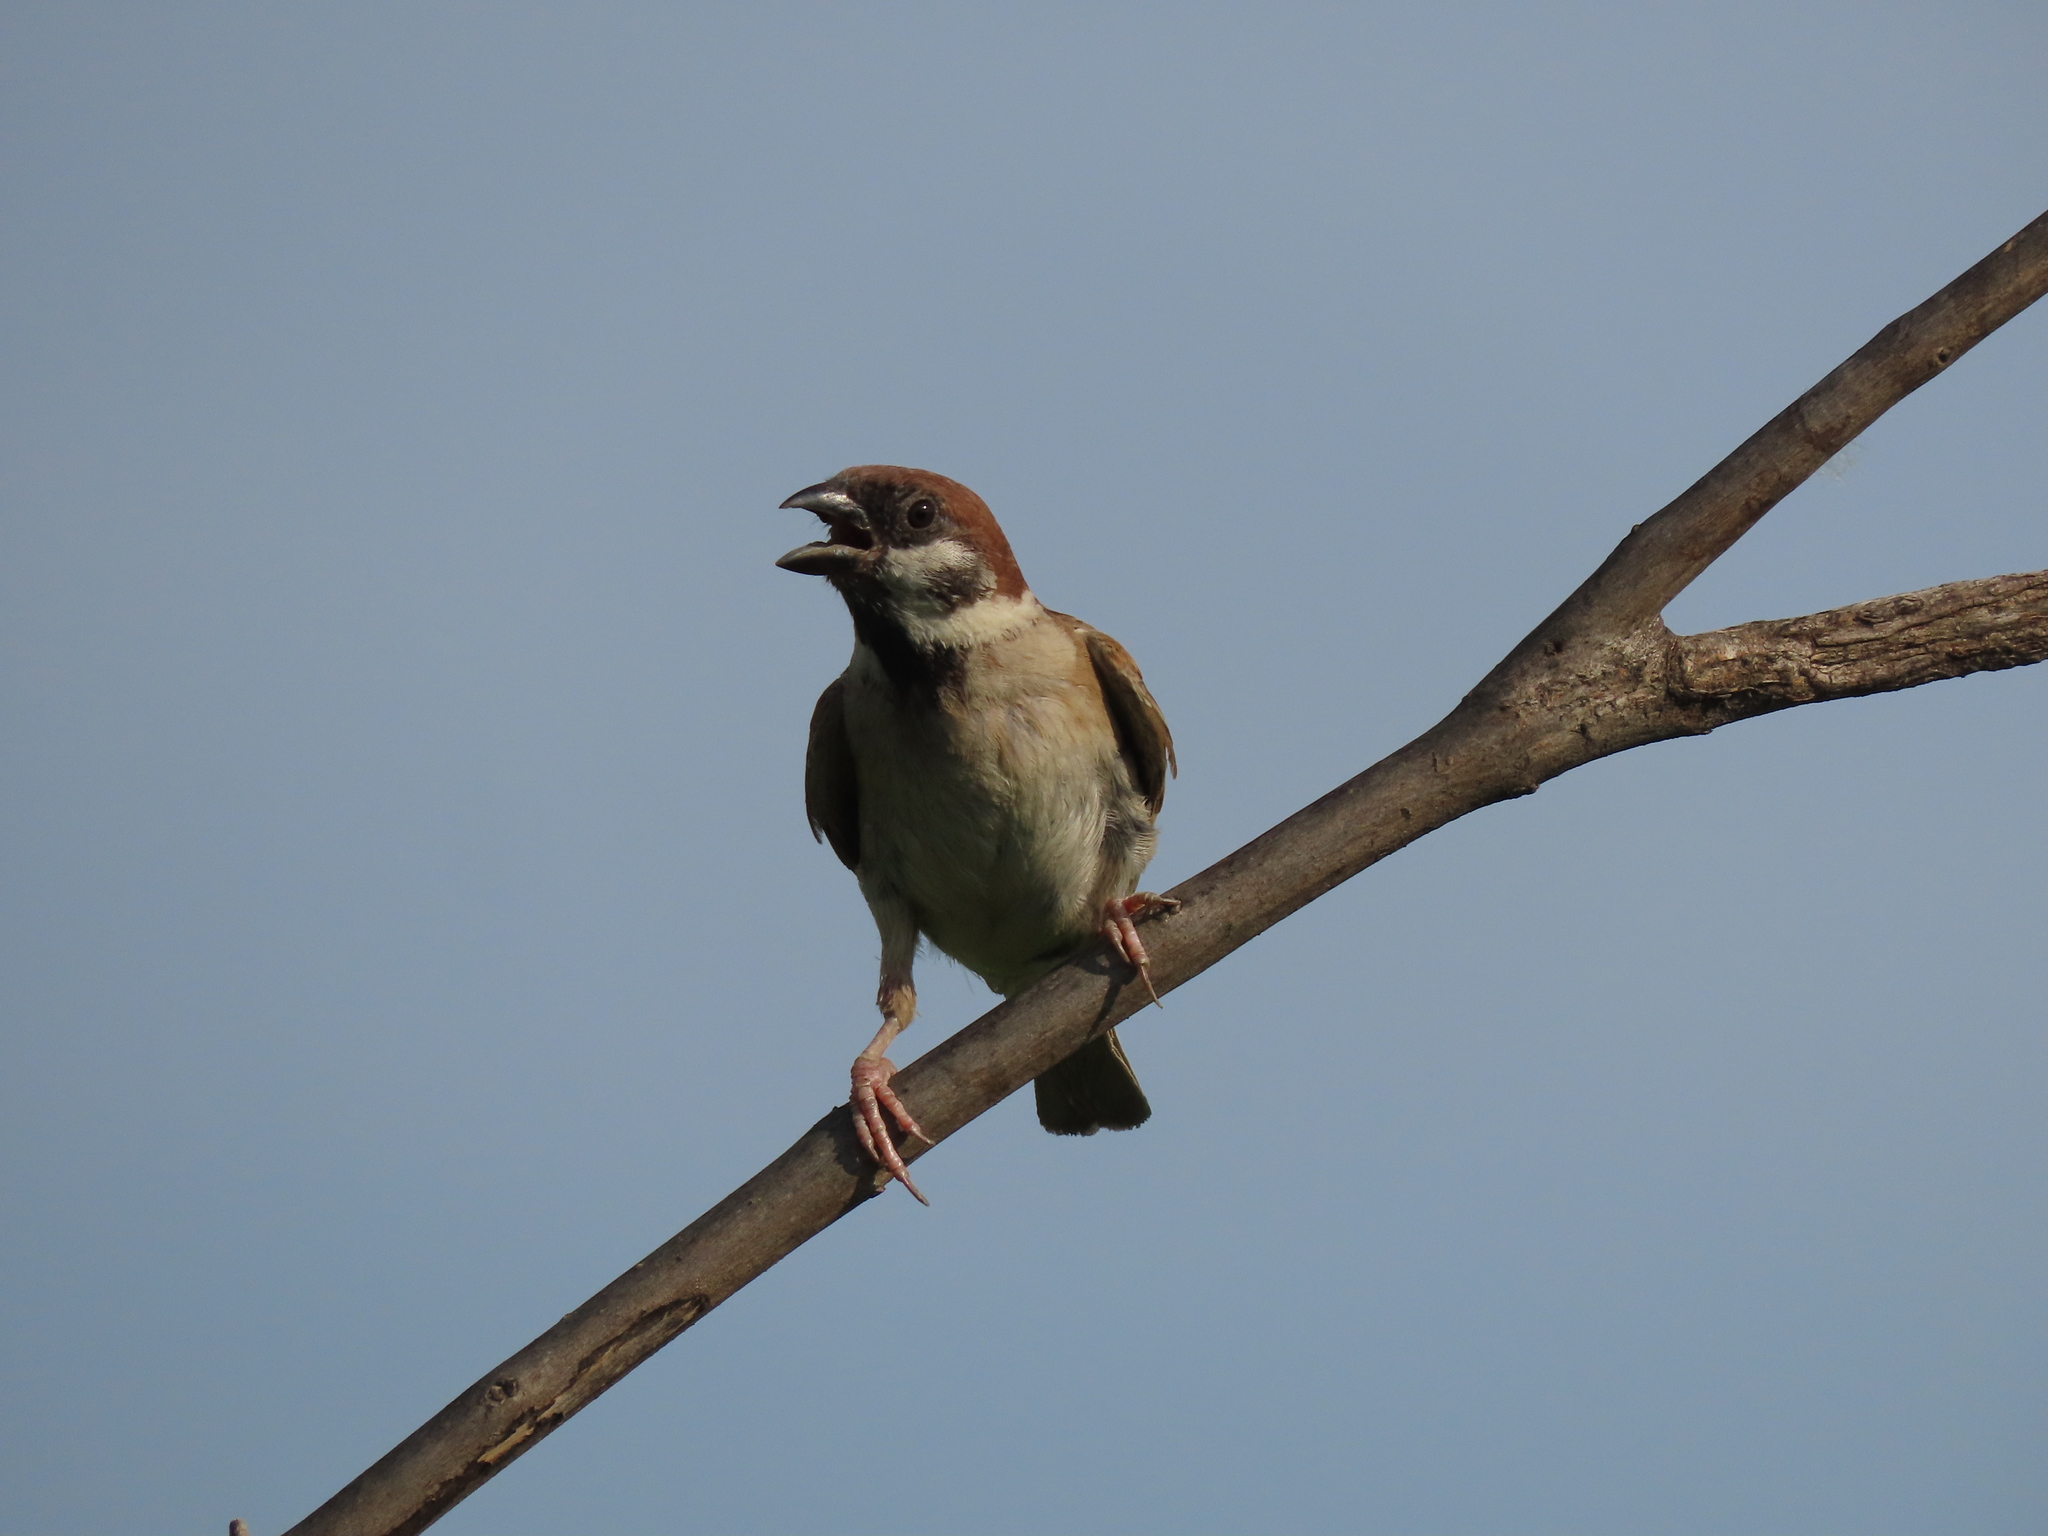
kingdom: Animalia
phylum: Chordata
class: Aves
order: Passeriformes
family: Passeridae
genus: Passer
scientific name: Passer montanus
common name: Eurasian tree sparrow
